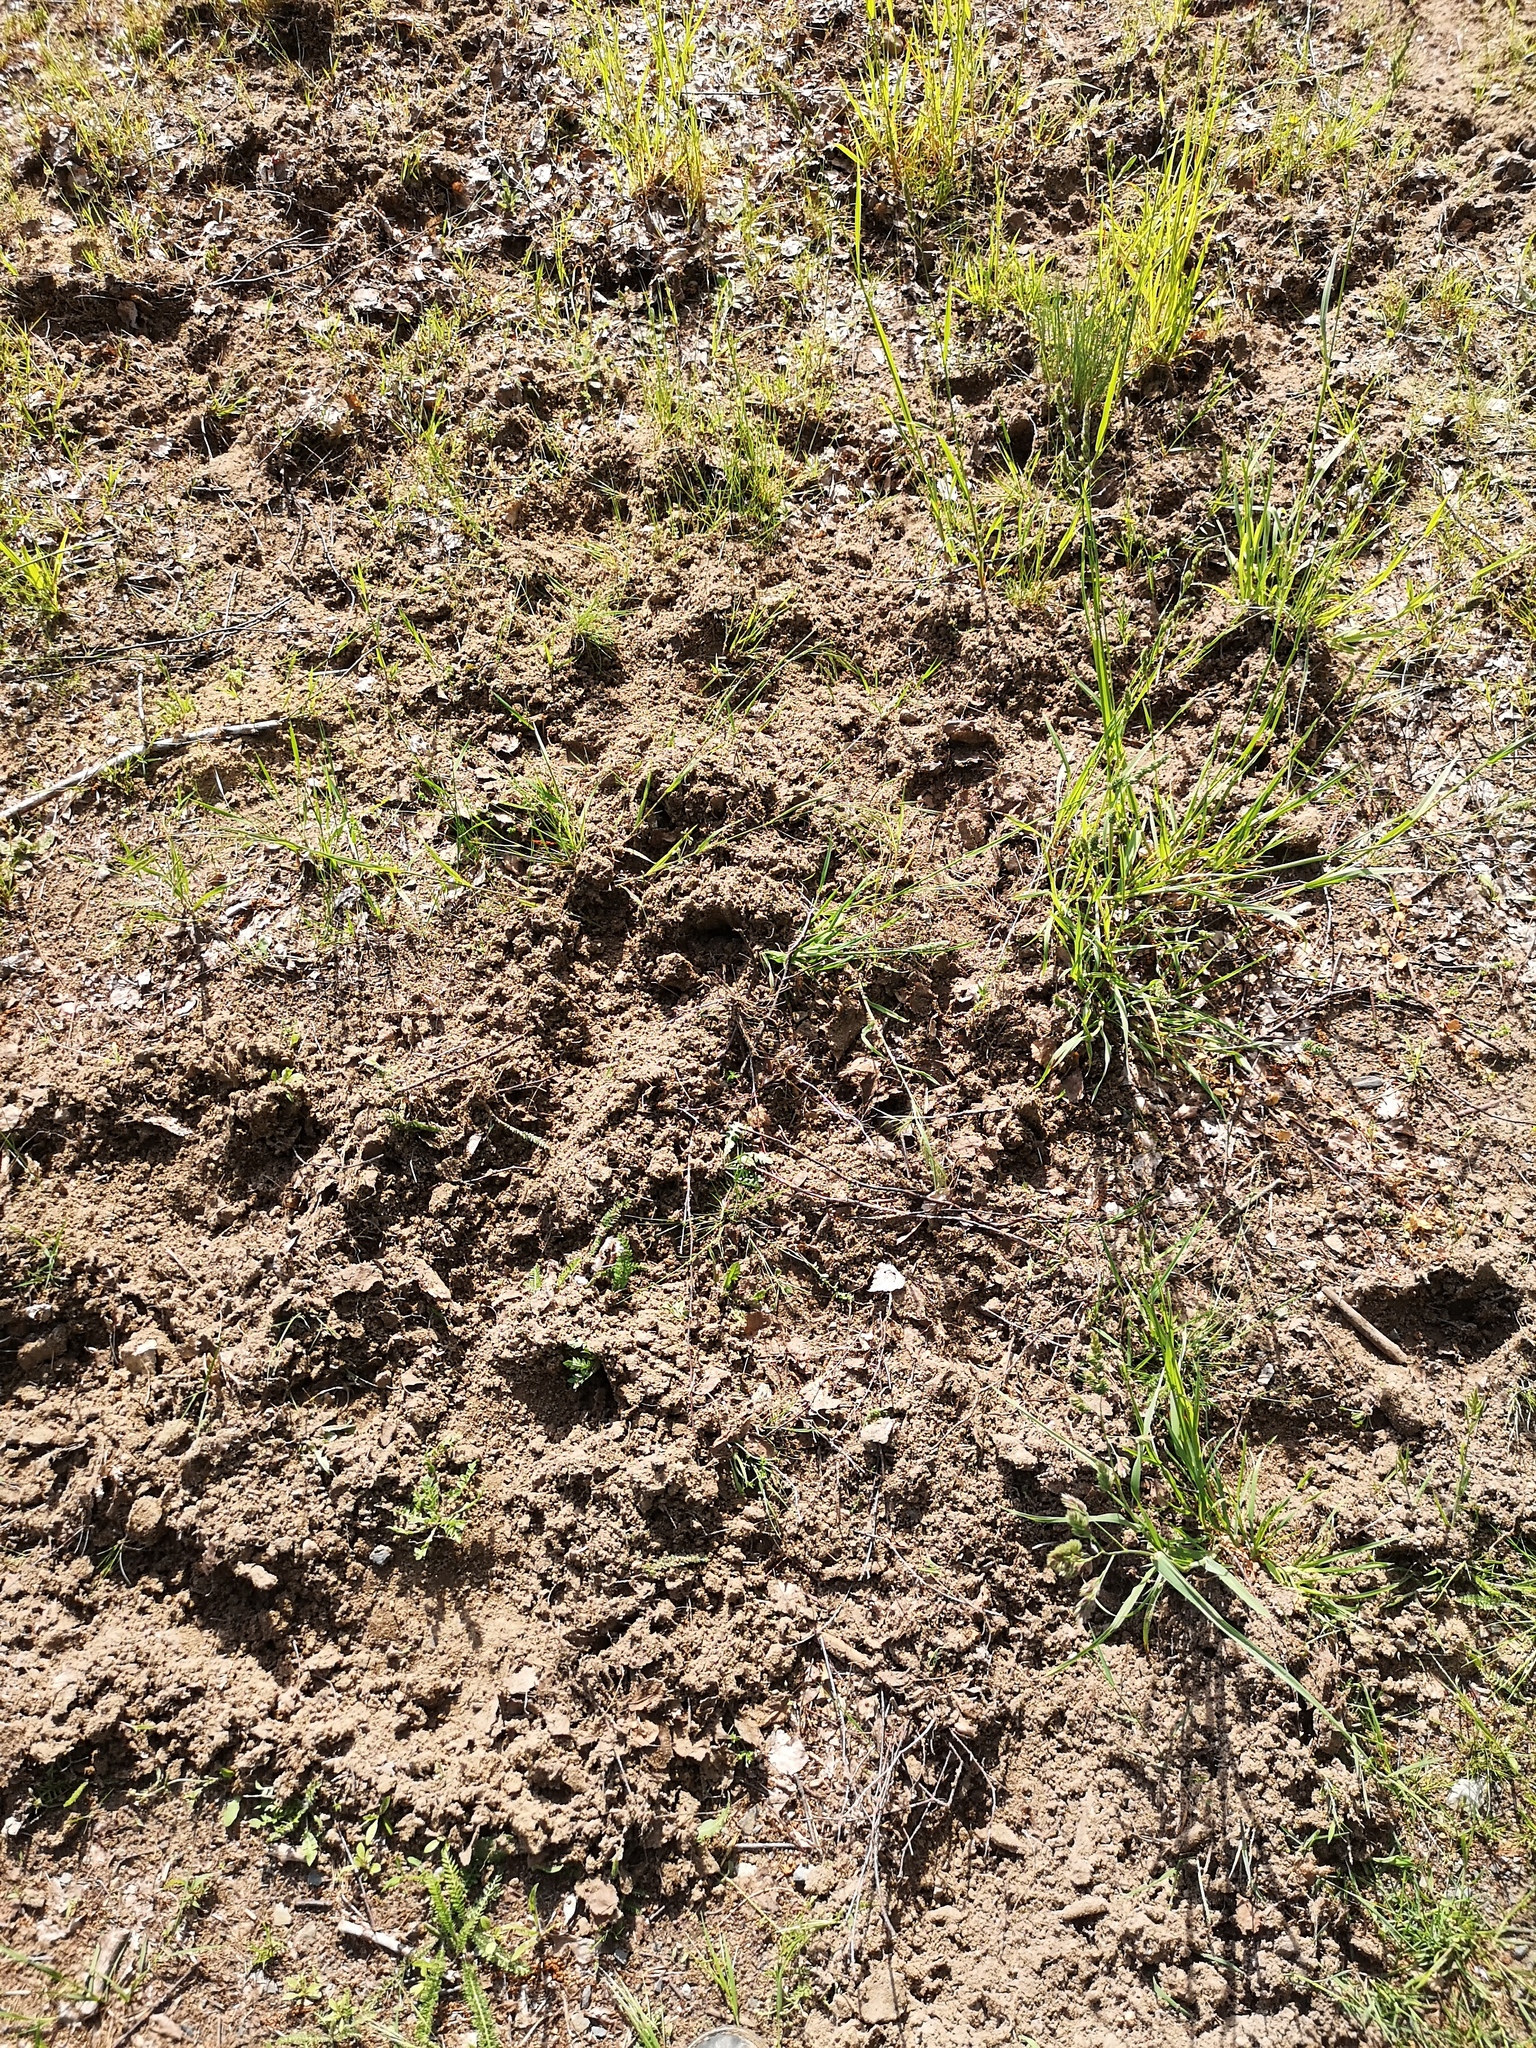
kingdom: Animalia
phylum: Chordata
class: Mammalia
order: Artiodactyla
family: Suidae
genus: Sus
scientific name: Sus scrofa
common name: Wild boar
